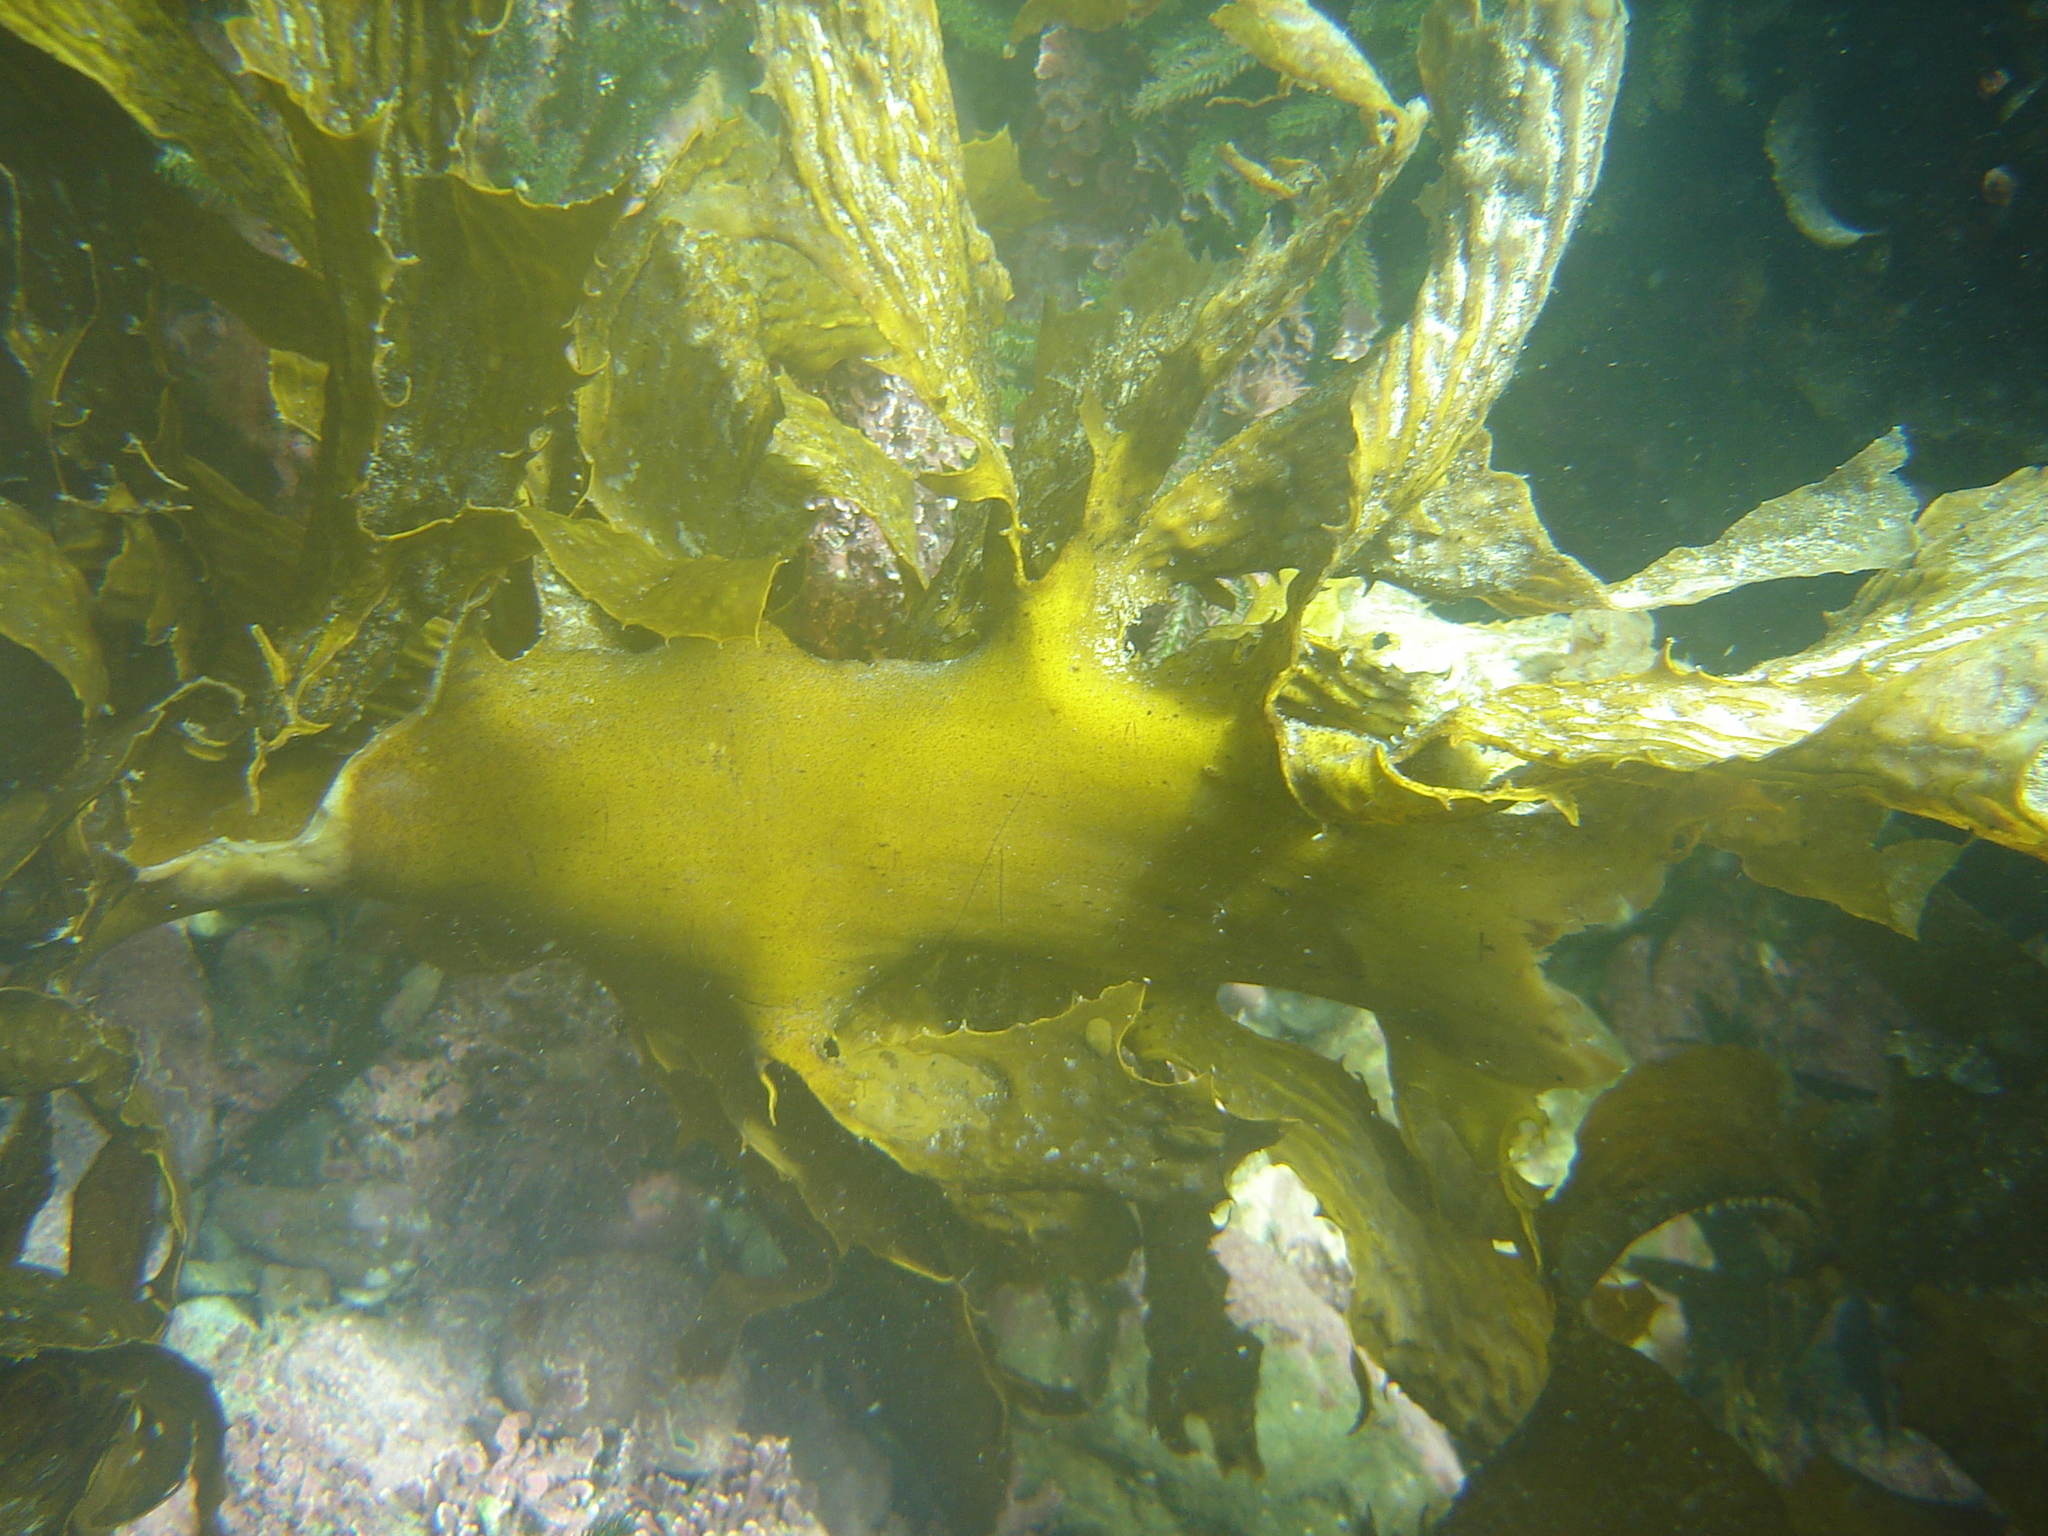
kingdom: Chromista
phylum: Ochrophyta
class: Phaeophyceae
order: Laminariales
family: Lessoniaceae
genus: Ecklonia
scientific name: Ecklonia radiata
